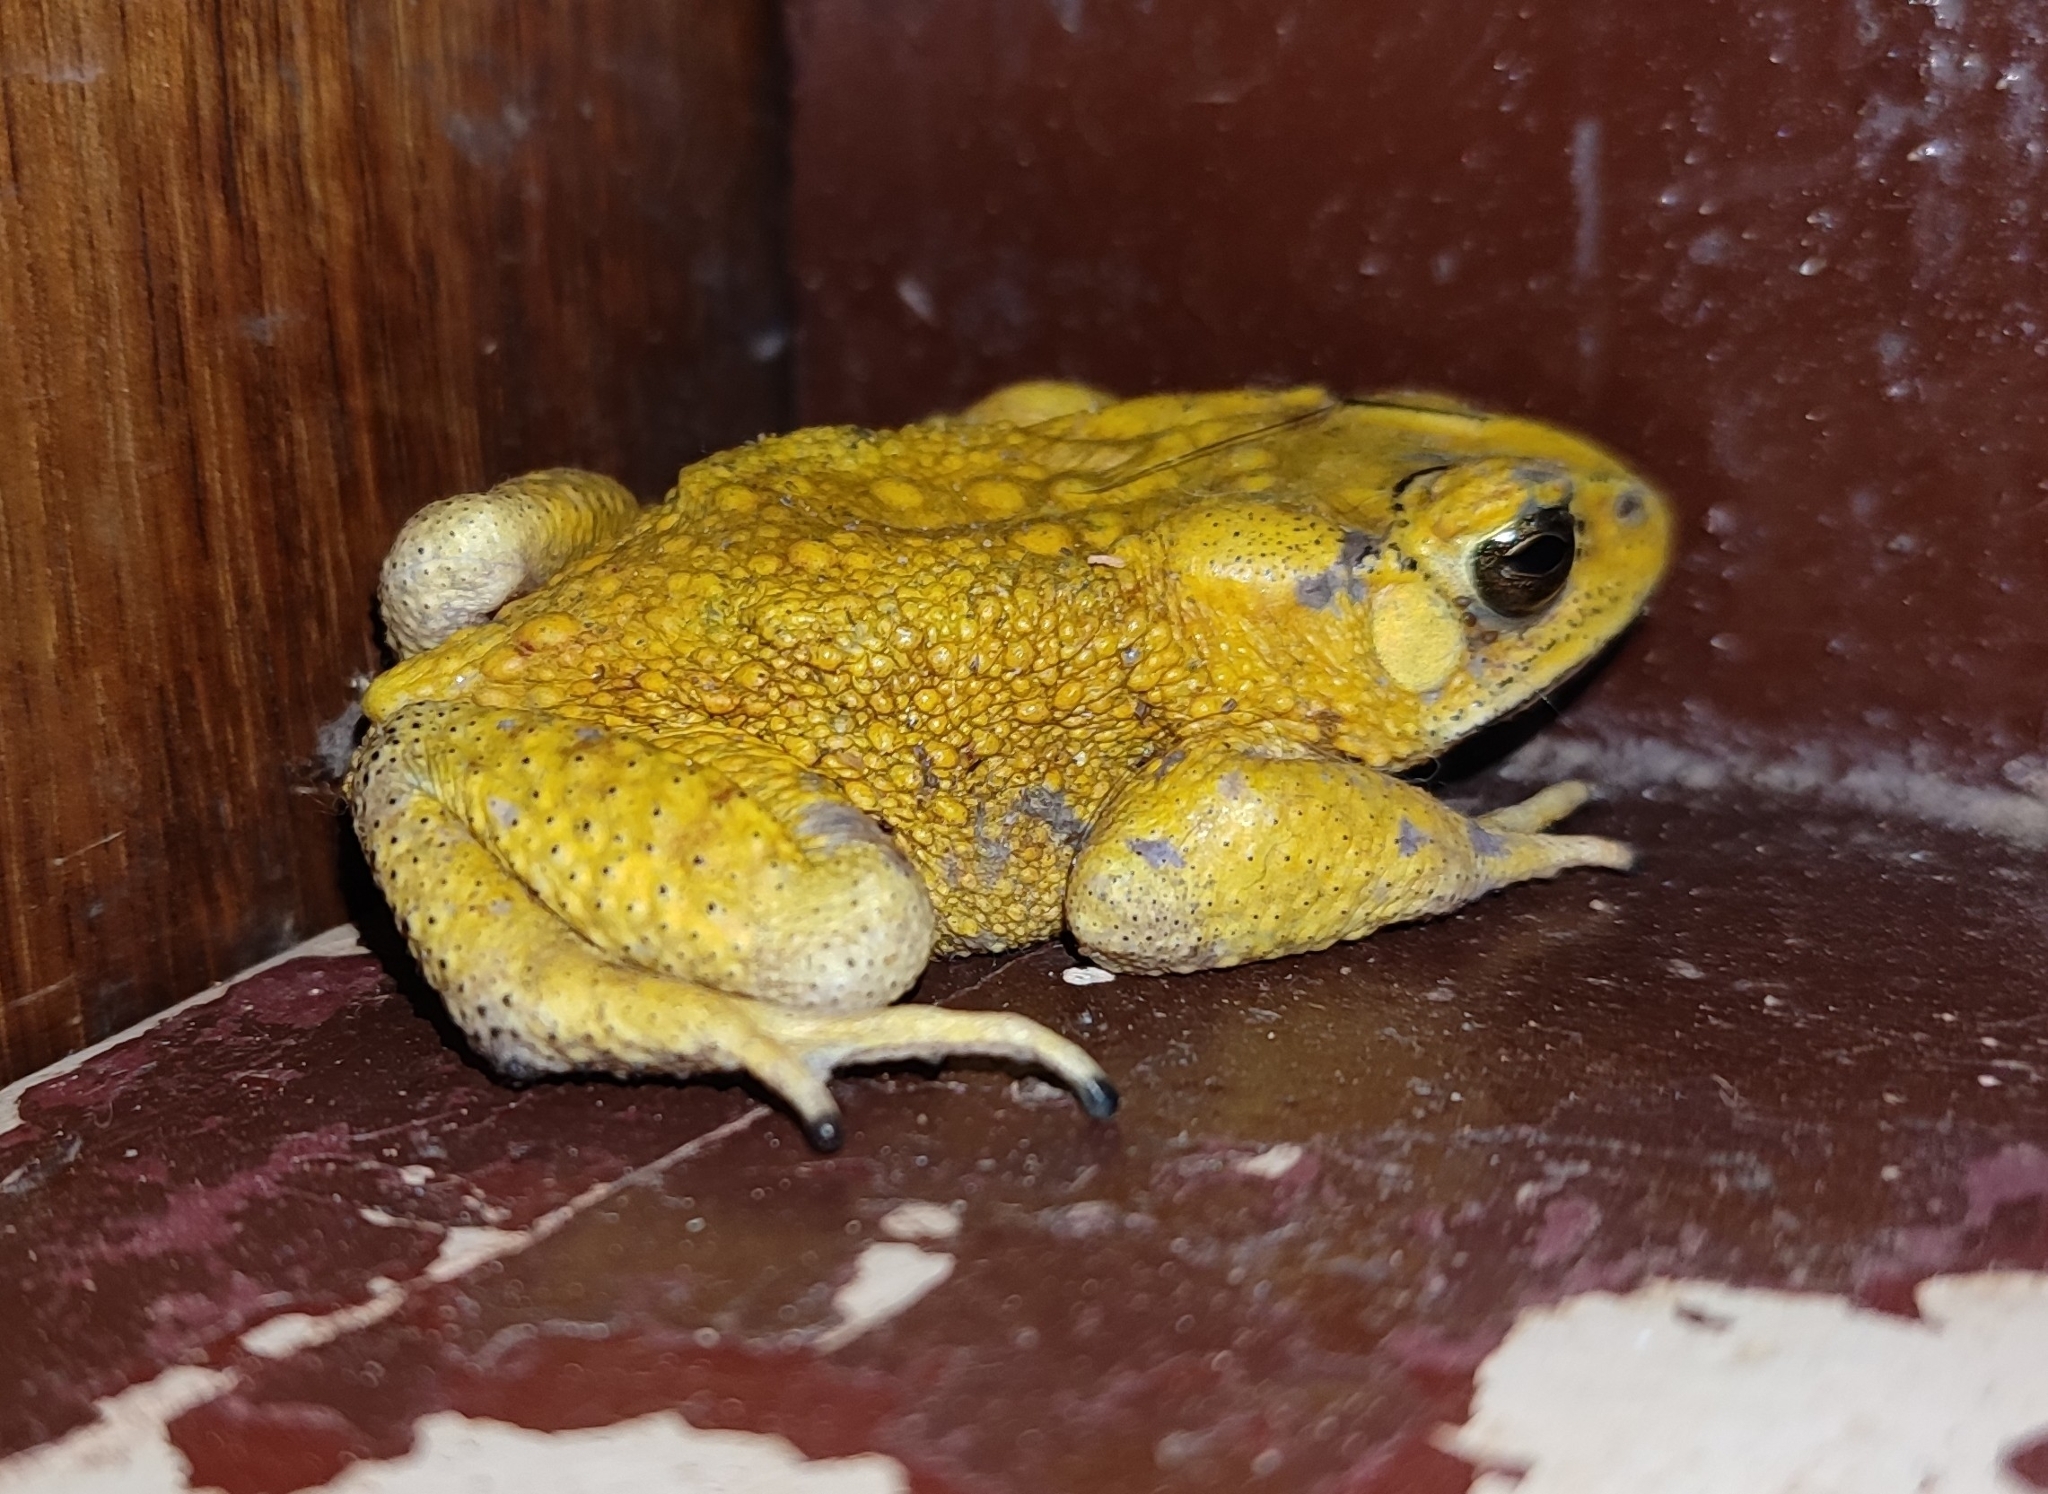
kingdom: Animalia
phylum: Chordata
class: Amphibia
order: Anura
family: Bufonidae
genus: Duttaphrynus
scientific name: Duttaphrynus melanostictus
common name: Common sunda toad
